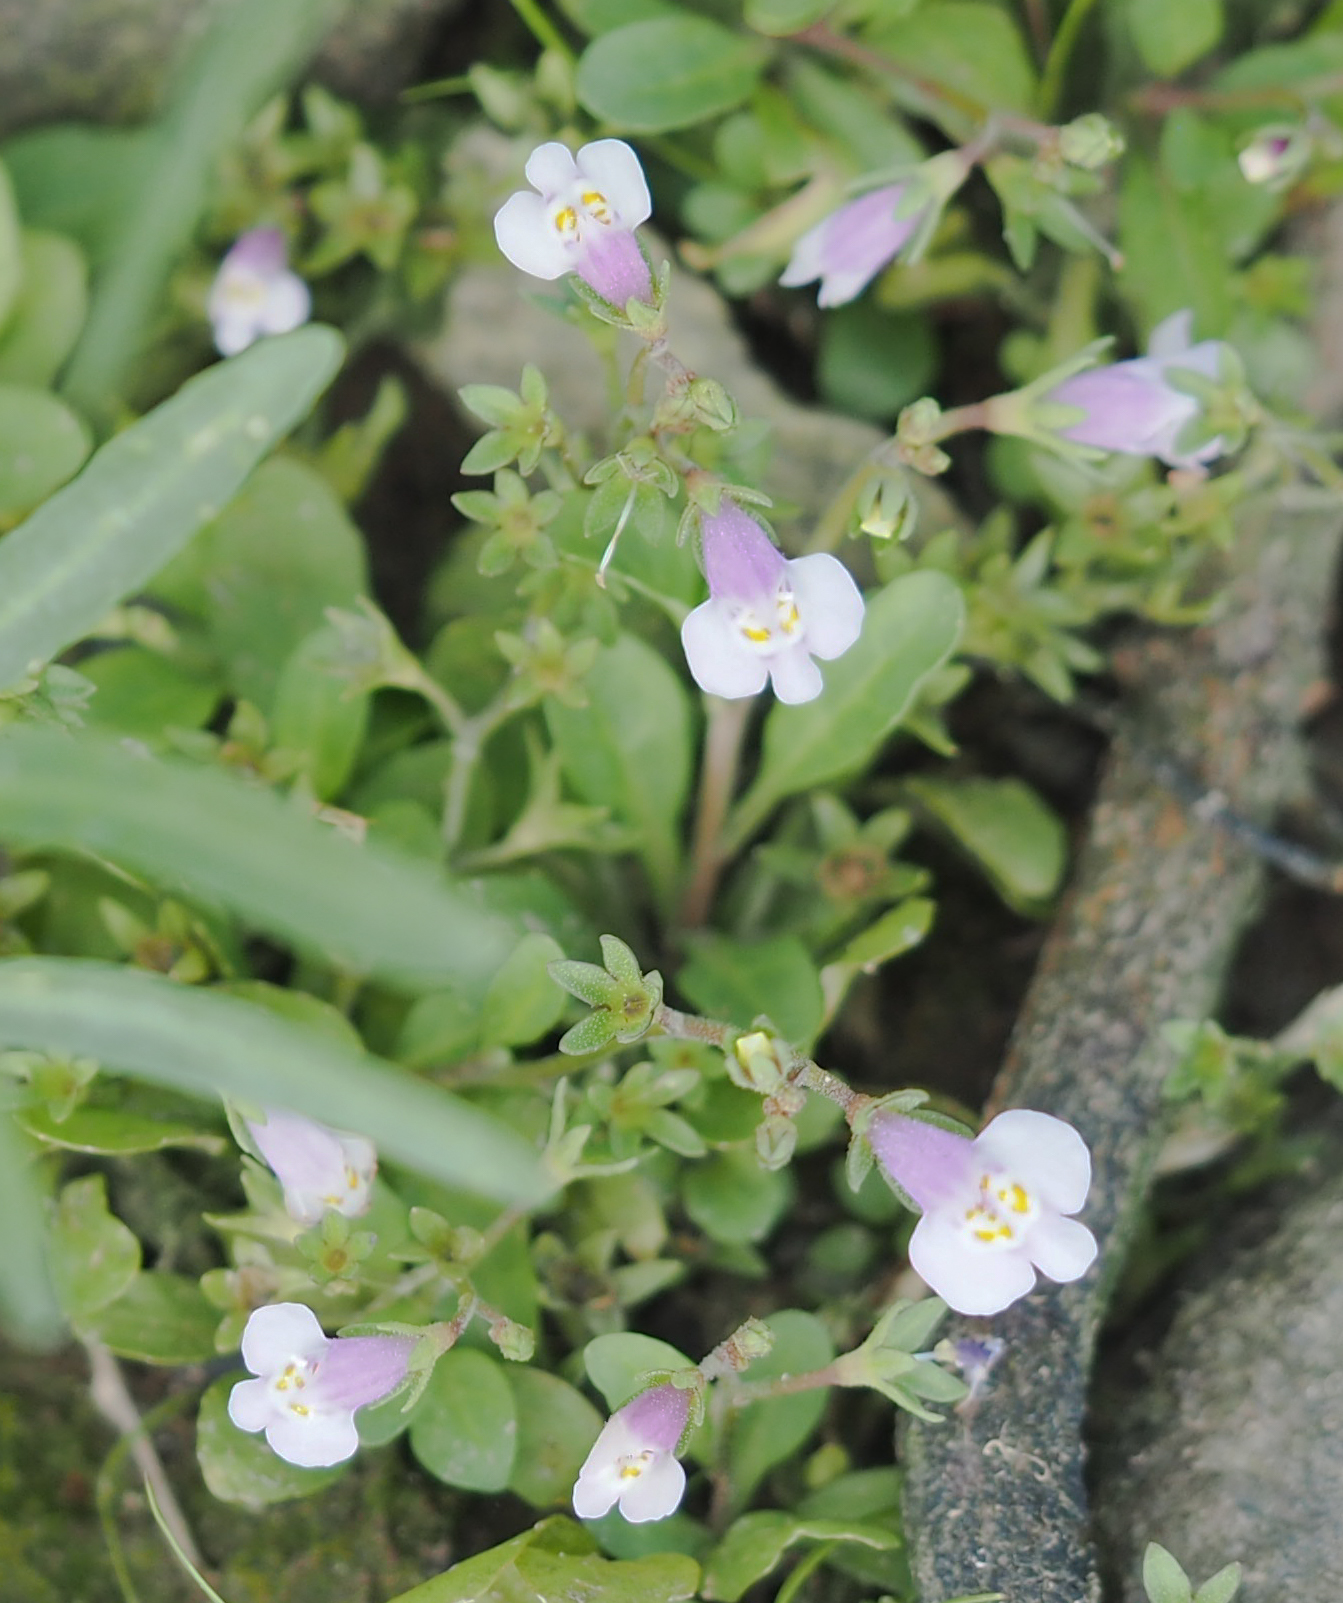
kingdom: Plantae
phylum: Tracheophyta
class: Magnoliopsida
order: Lamiales
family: Mazaceae
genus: Mazus
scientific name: Mazus pumilus
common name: Japanese mazus
